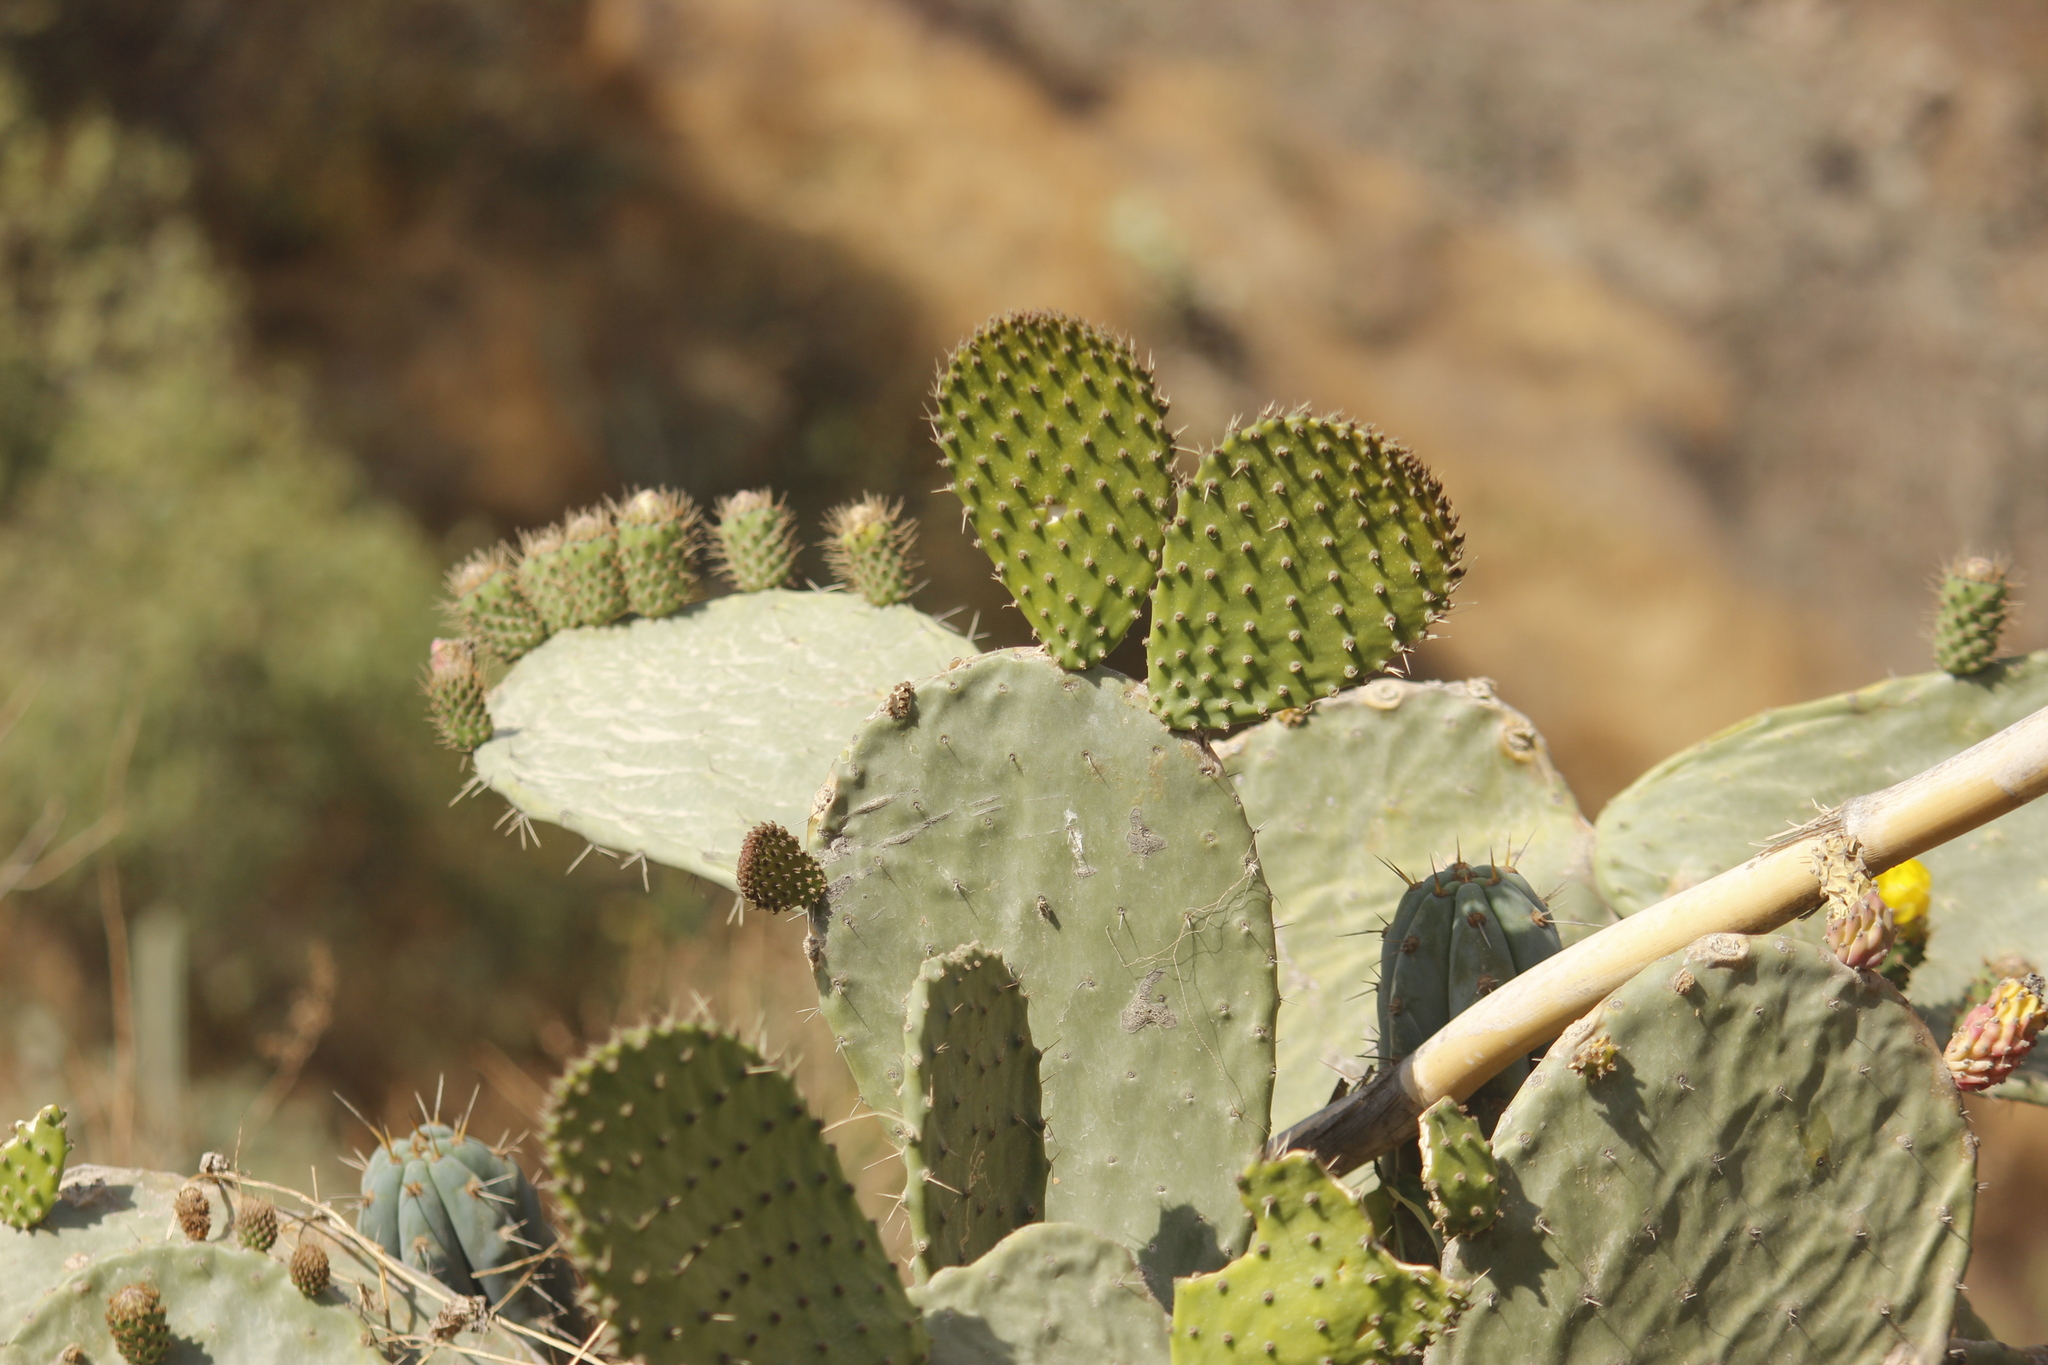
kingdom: Plantae
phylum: Tracheophyta
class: Magnoliopsida
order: Caryophyllales
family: Cactaceae
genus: Opuntia
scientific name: Opuntia ficus-indica
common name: Barbary fig
